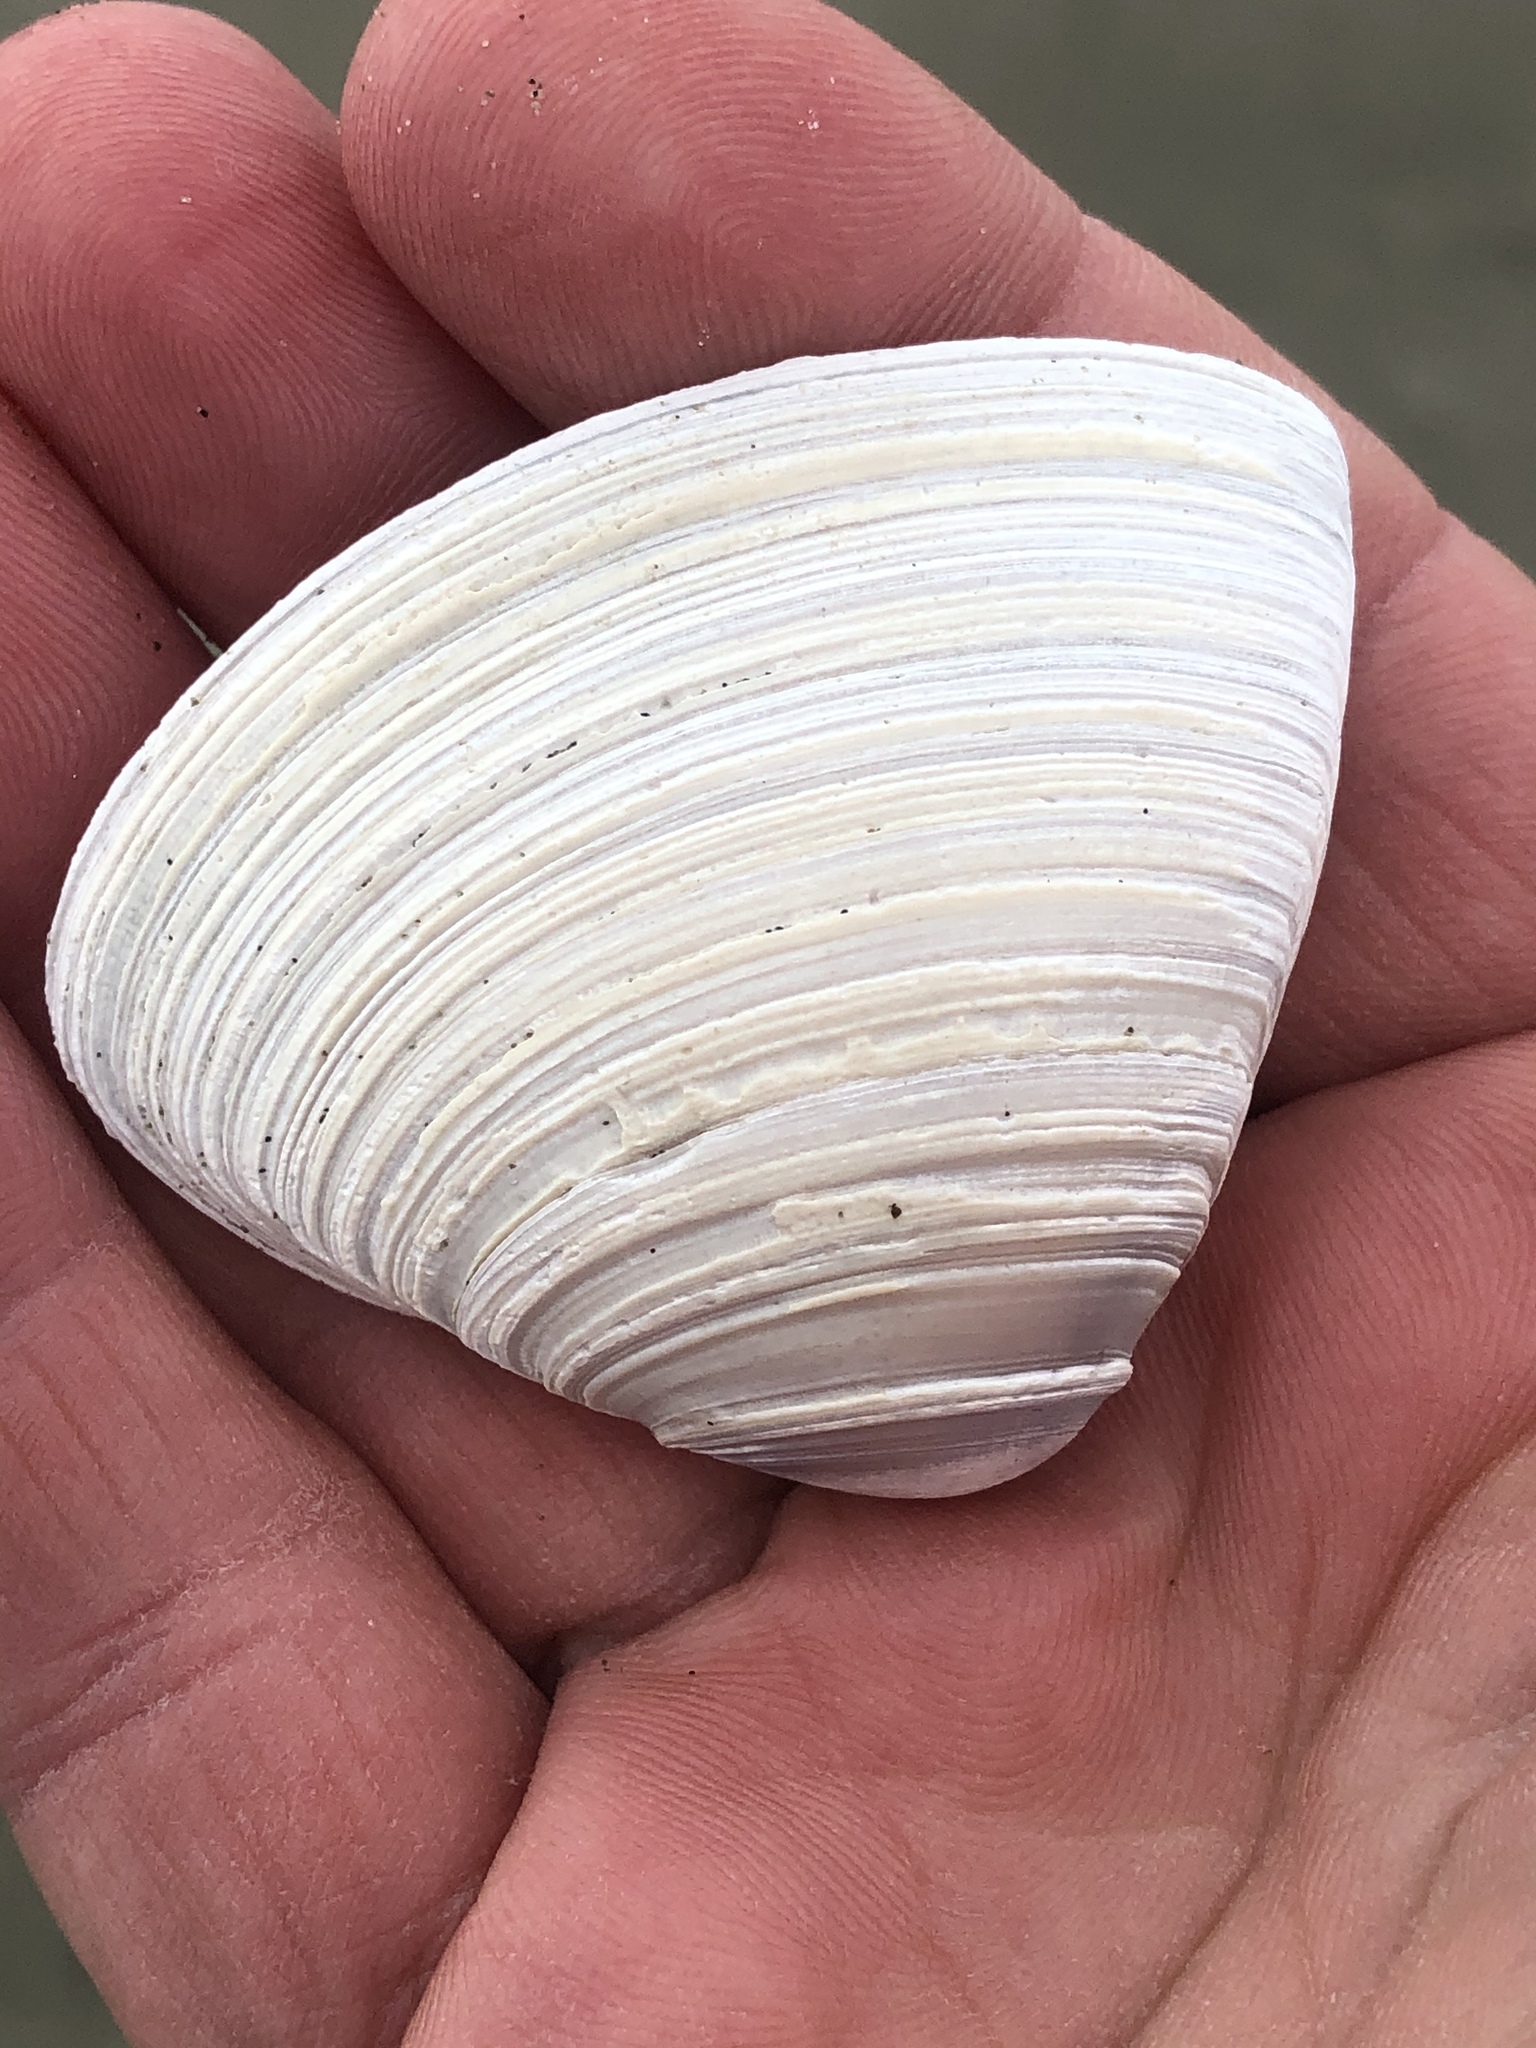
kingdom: Animalia
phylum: Mollusca
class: Bivalvia
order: Venerida
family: Mactridae
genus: Crassula
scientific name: Crassula aequilatera
